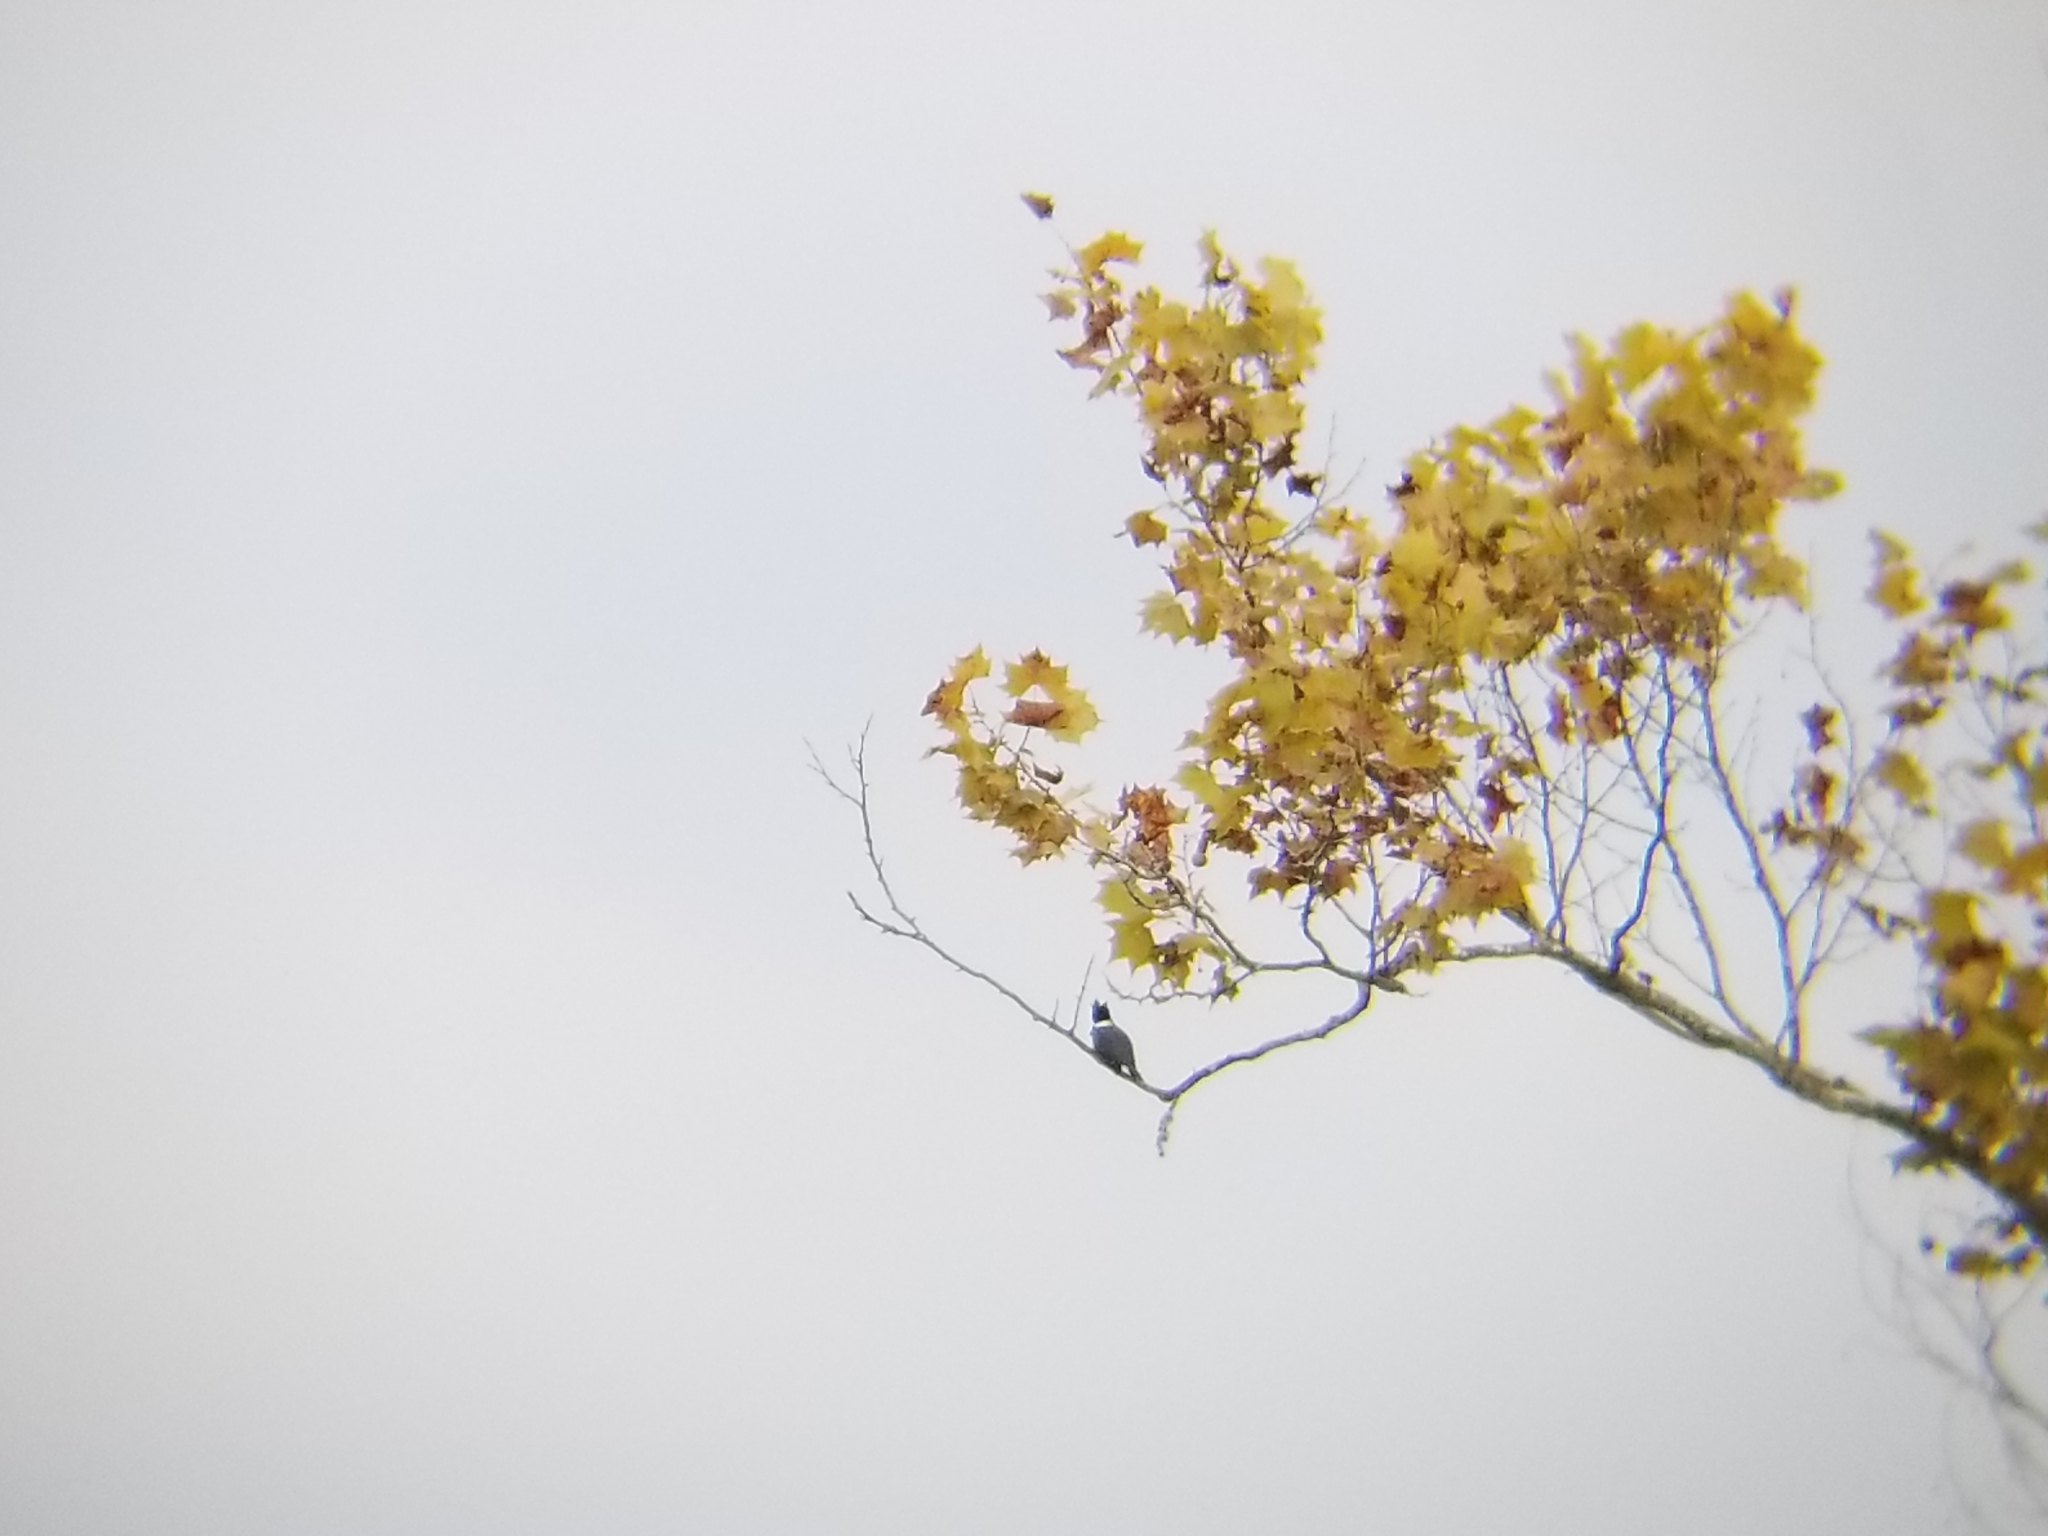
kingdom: Animalia
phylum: Chordata
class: Aves
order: Coraciiformes
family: Alcedinidae
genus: Megaceryle
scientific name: Megaceryle alcyon
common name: Belted kingfisher
